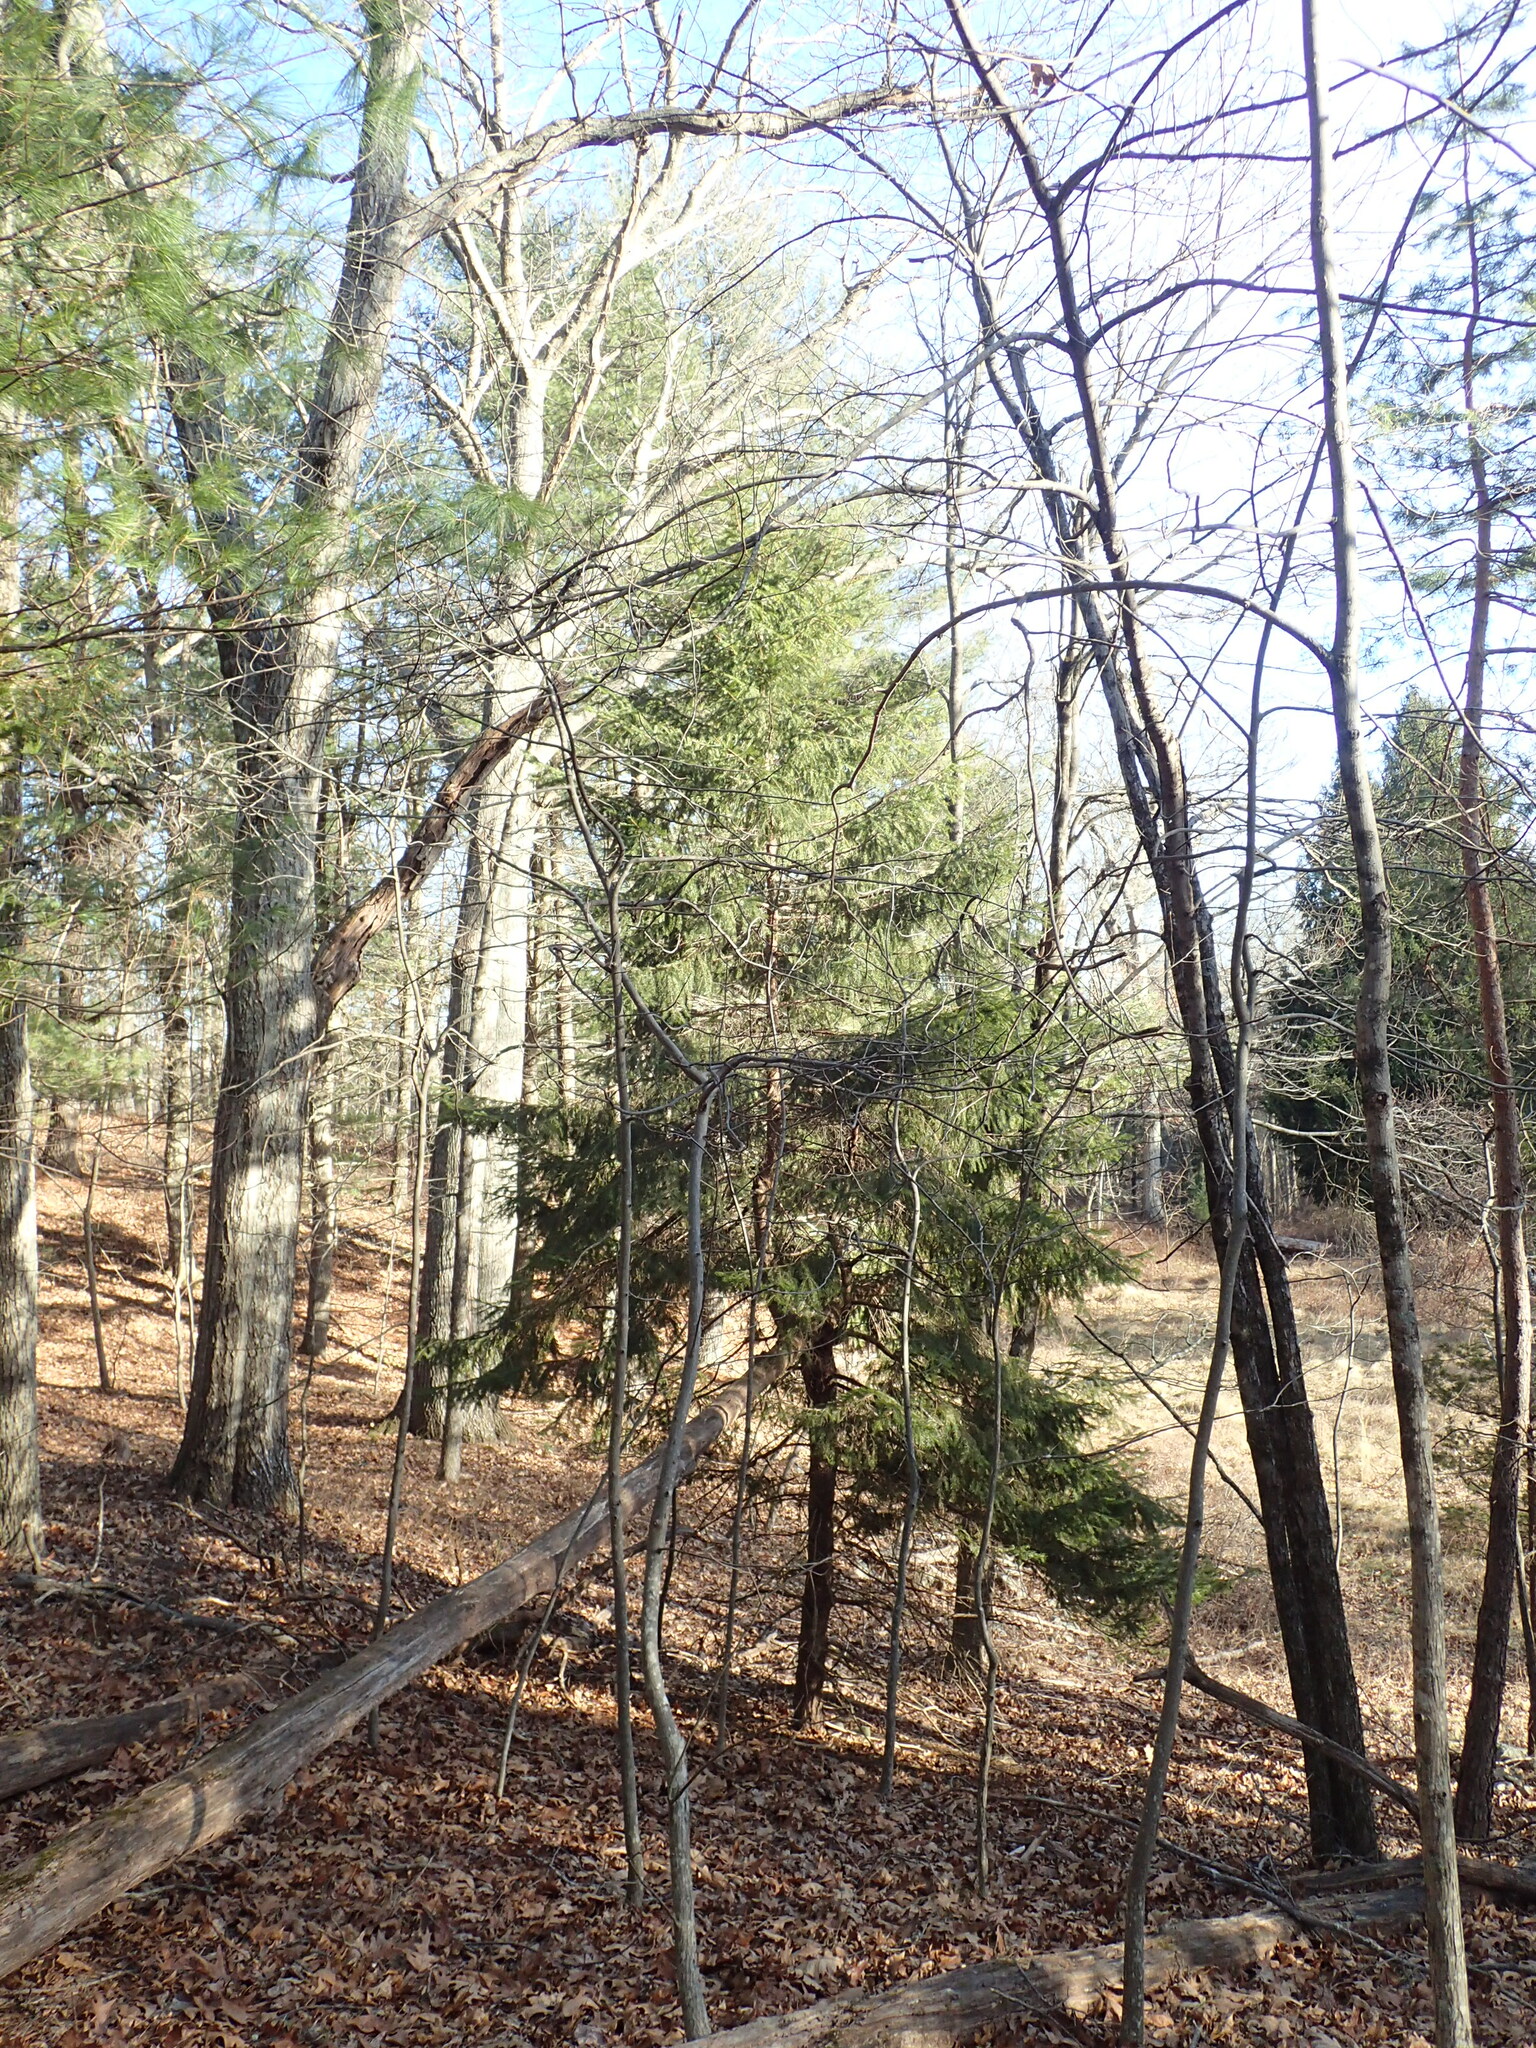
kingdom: Plantae
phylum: Tracheophyta
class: Pinopsida
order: Pinales
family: Pinaceae
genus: Picea
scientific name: Picea abies
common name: Norway spruce
